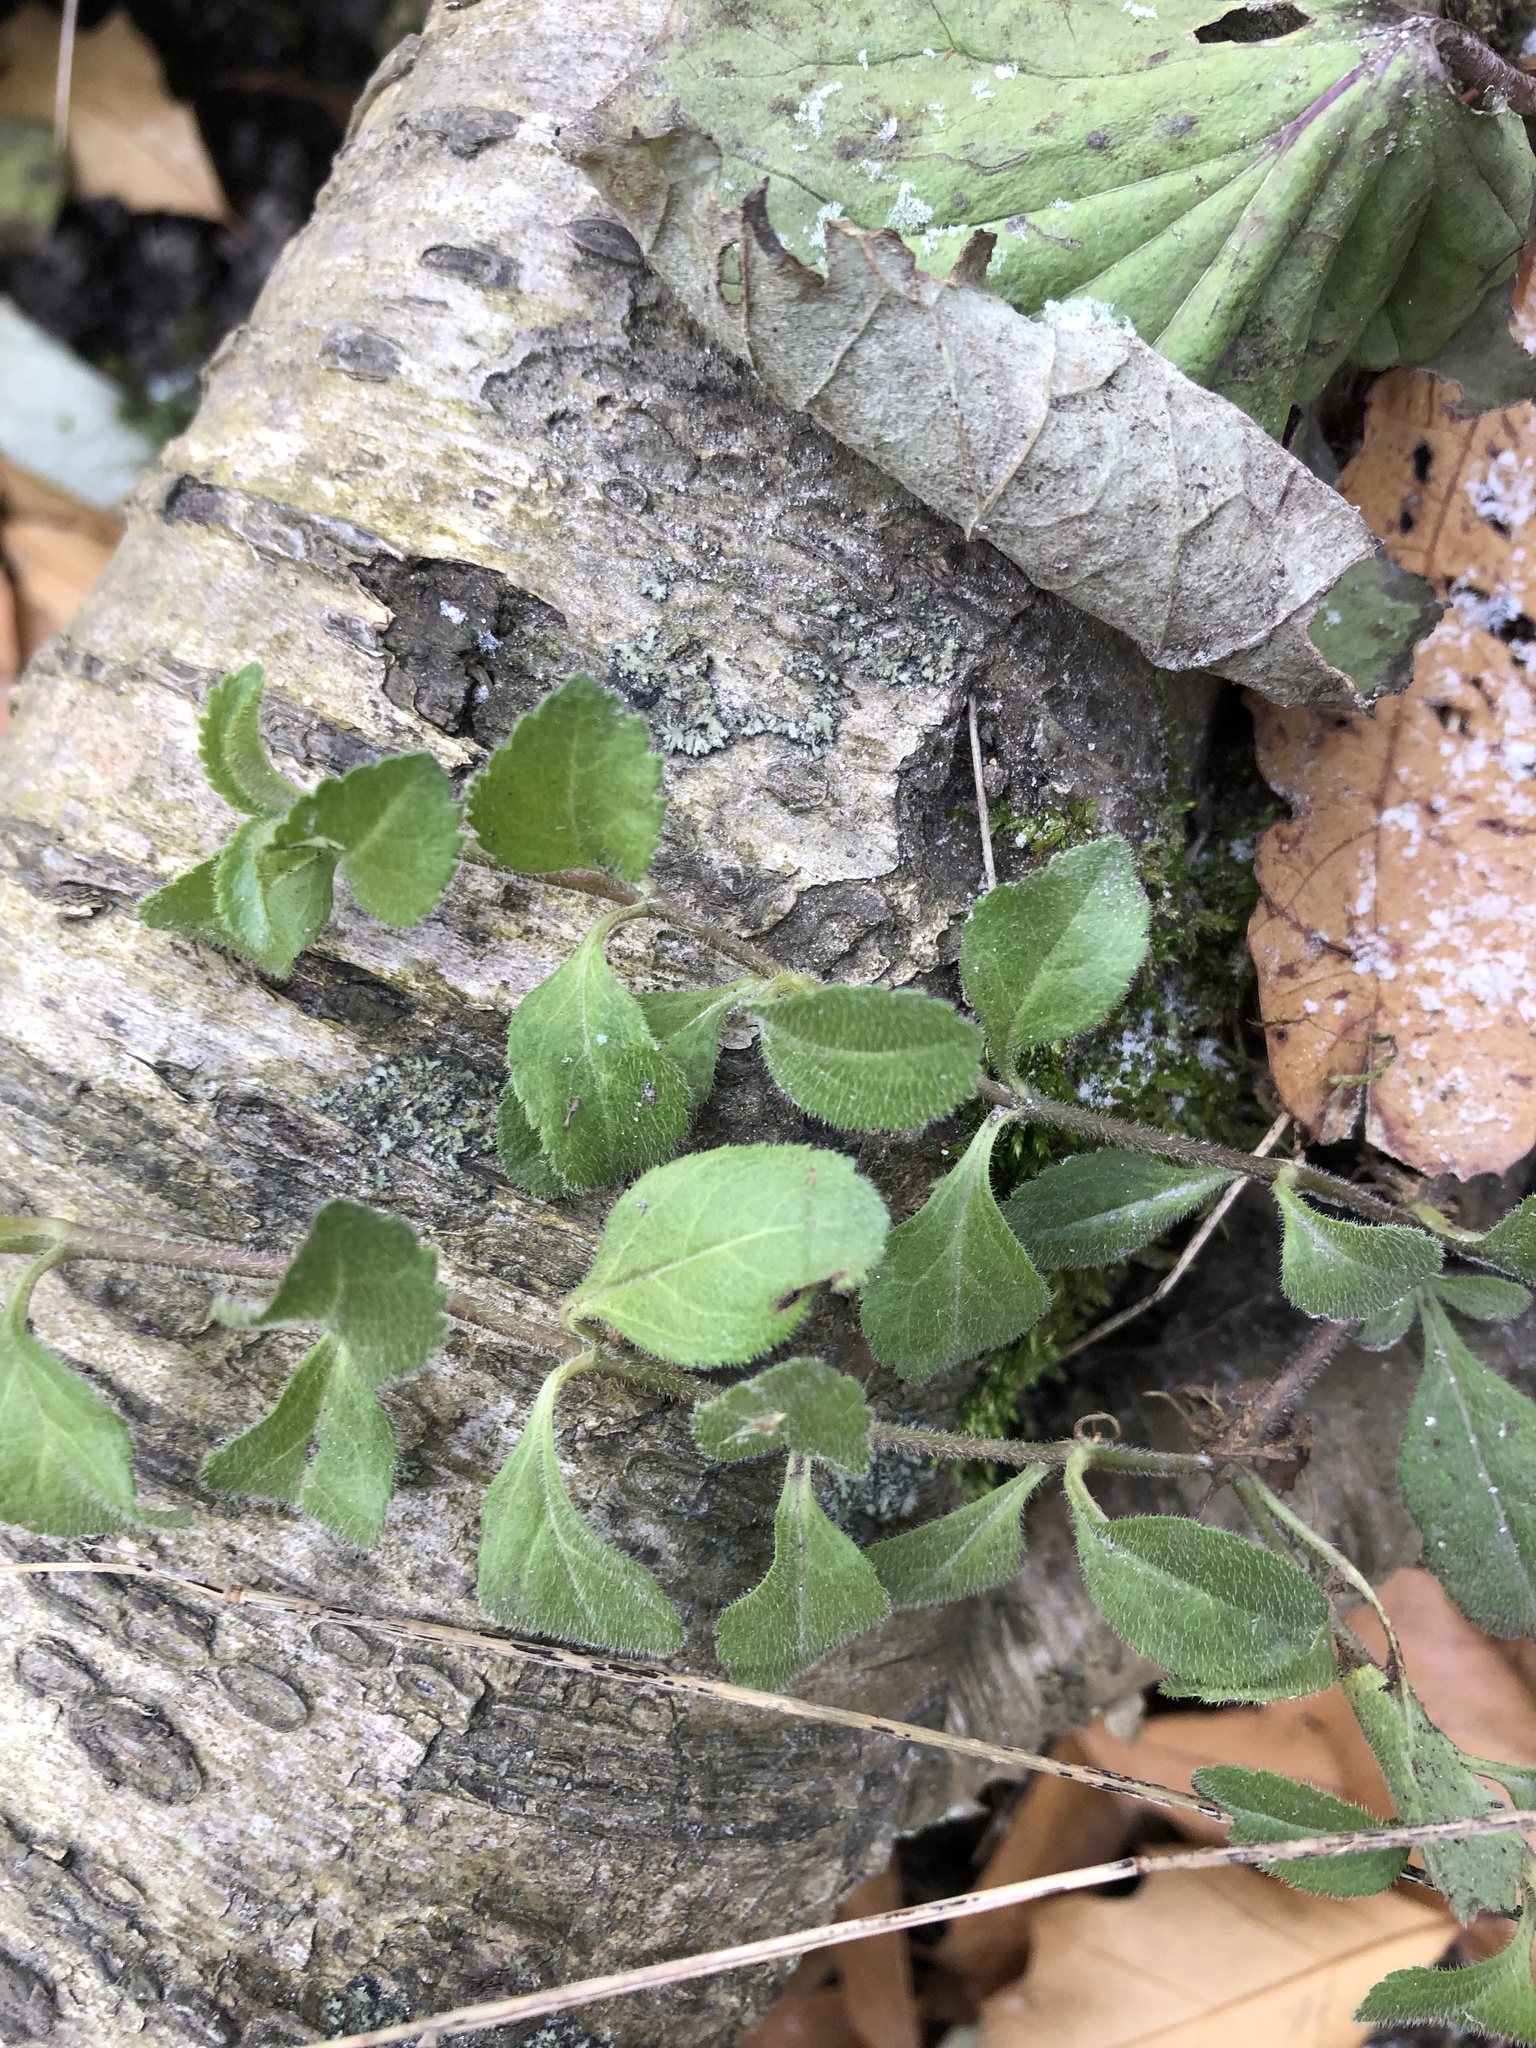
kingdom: Plantae
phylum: Tracheophyta
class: Magnoliopsida
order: Lamiales
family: Plantaginaceae
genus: Veronica
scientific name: Veronica officinalis
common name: Common speedwell
